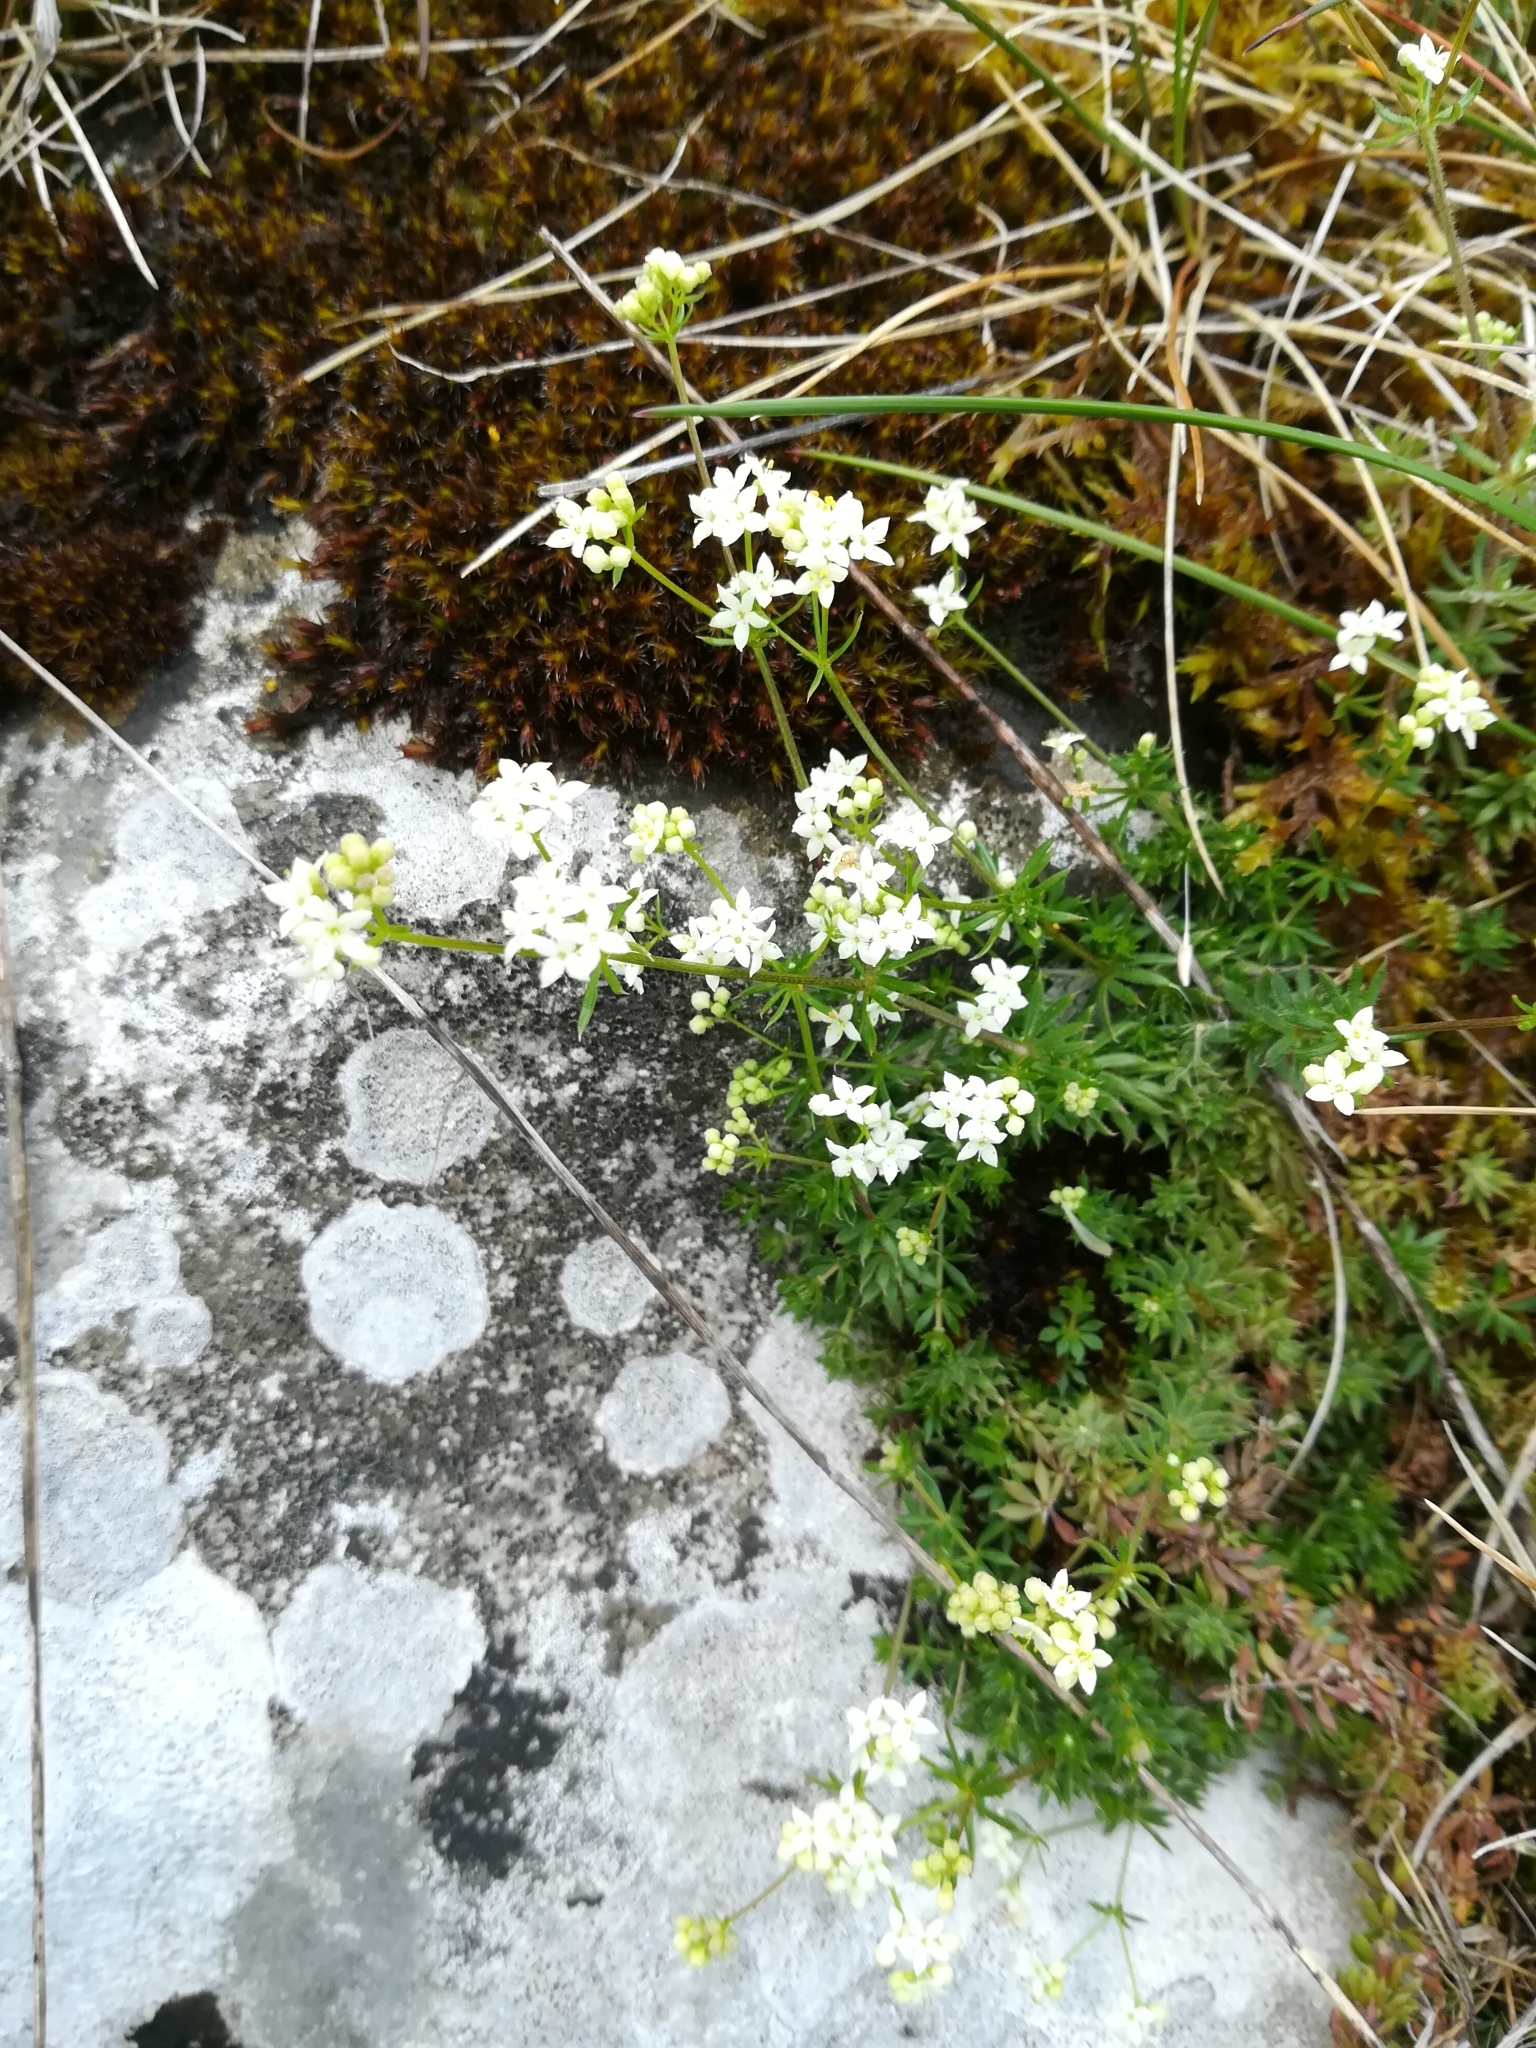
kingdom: Plantae
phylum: Tracheophyta
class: Magnoliopsida
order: Gentianales
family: Rubiaceae
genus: Galium
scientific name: Galium sterneri
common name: Limestone bedstraw
